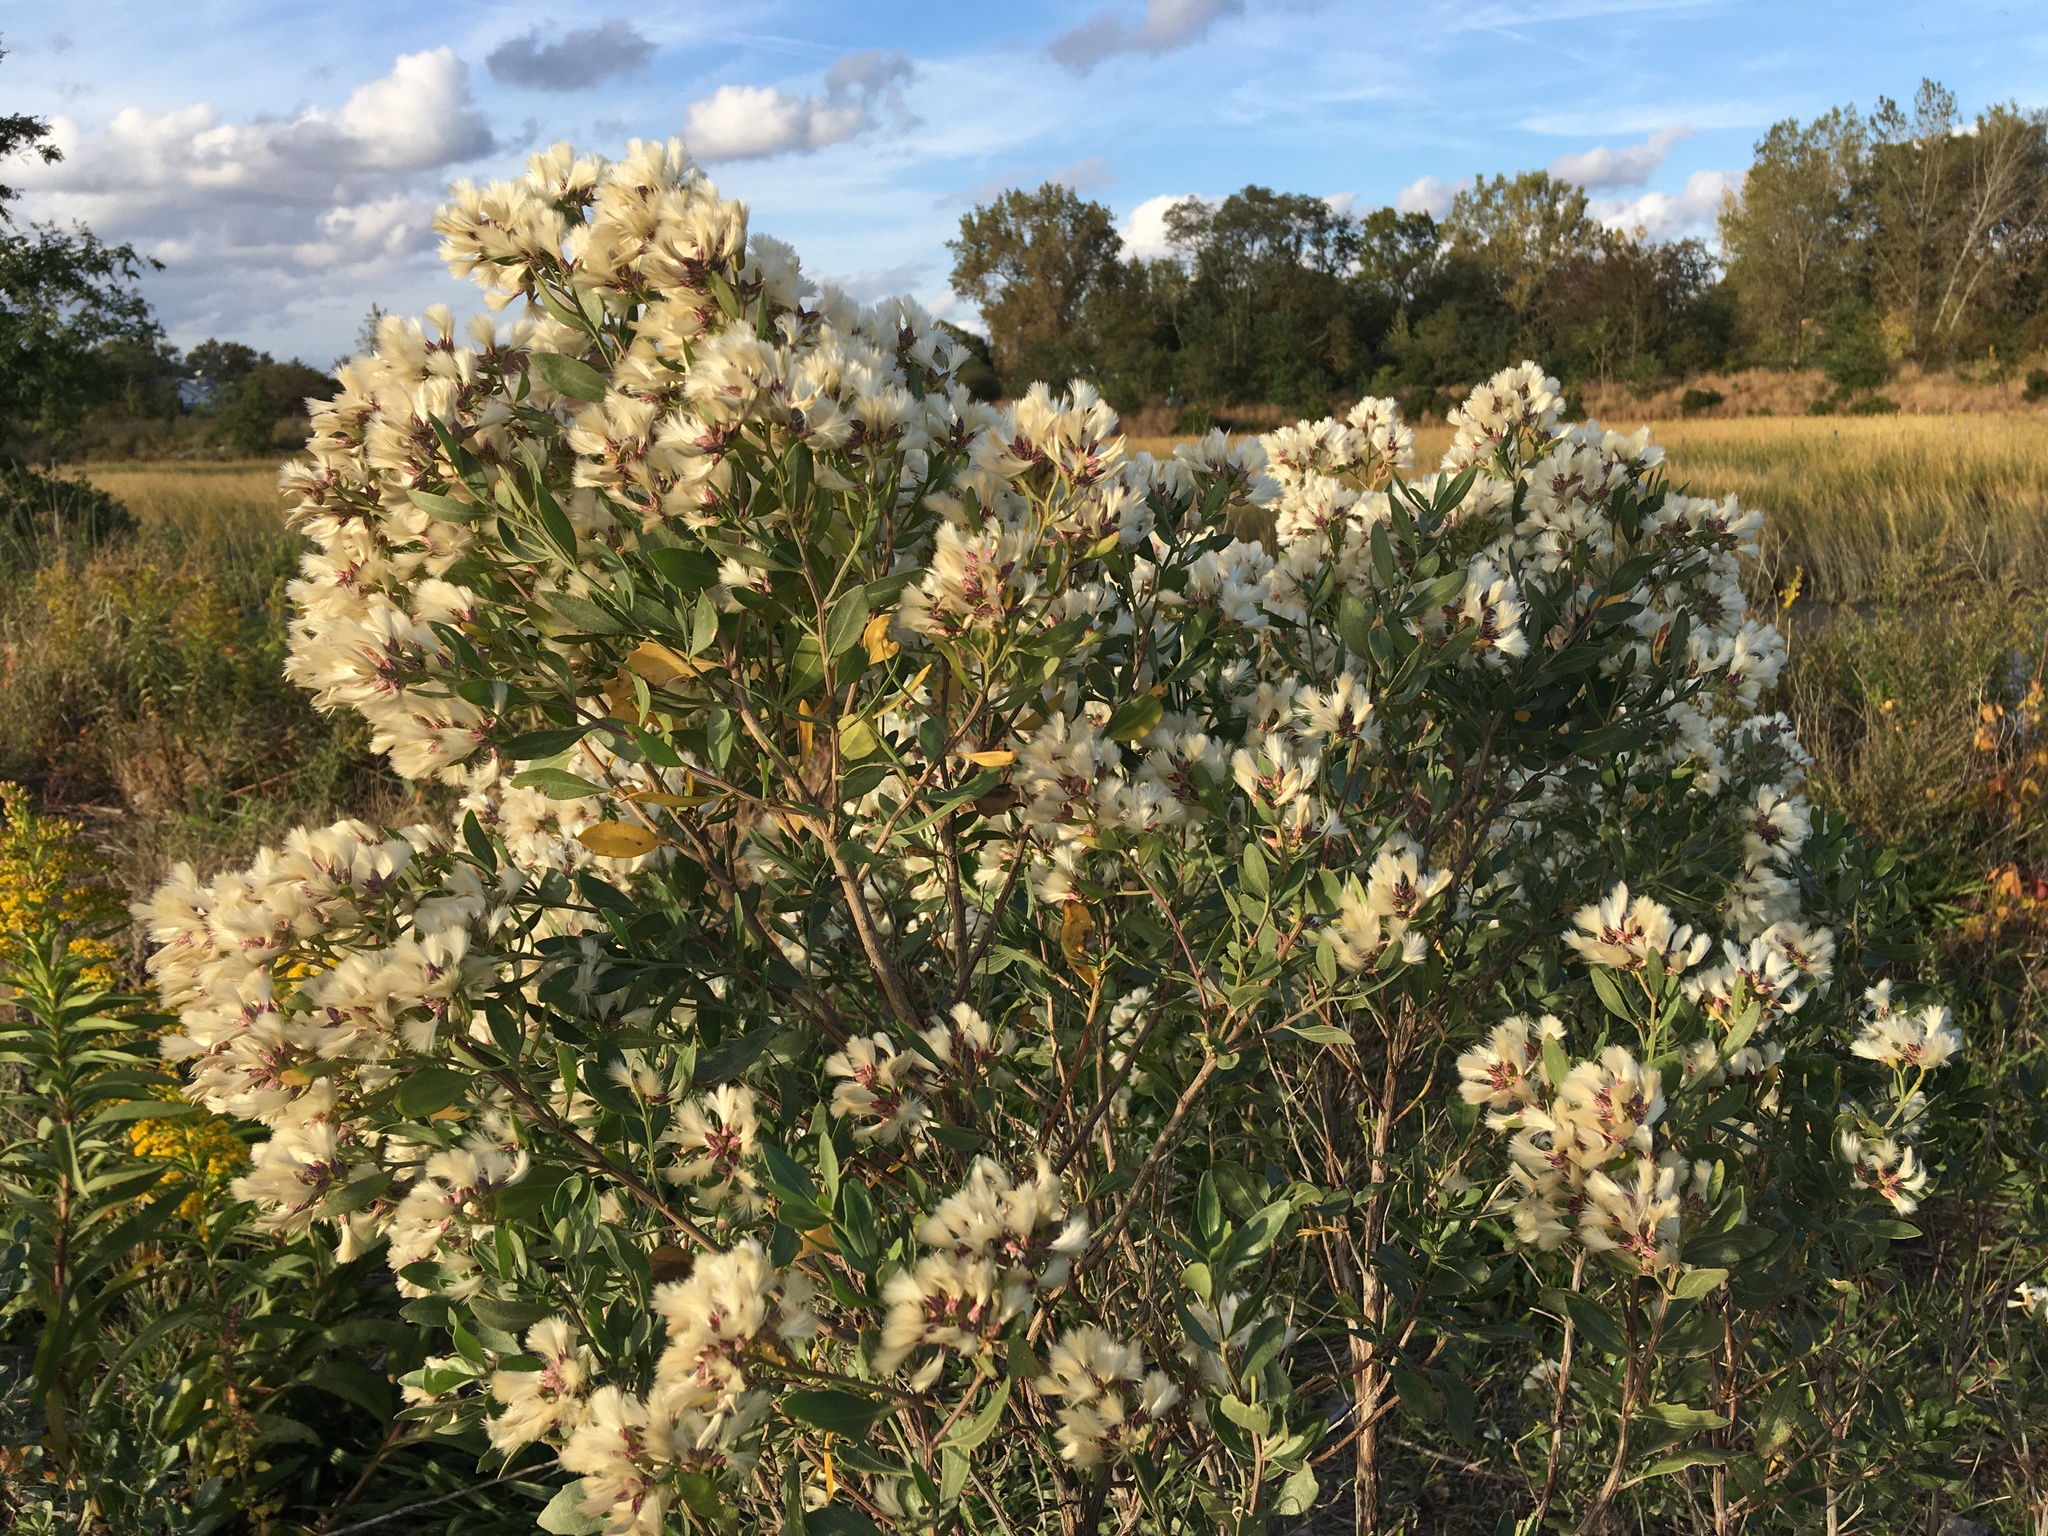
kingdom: Plantae
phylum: Tracheophyta
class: Magnoliopsida
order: Asterales
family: Asteraceae
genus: Baccharis
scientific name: Baccharis halimifolia
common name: Eastern baccharis
